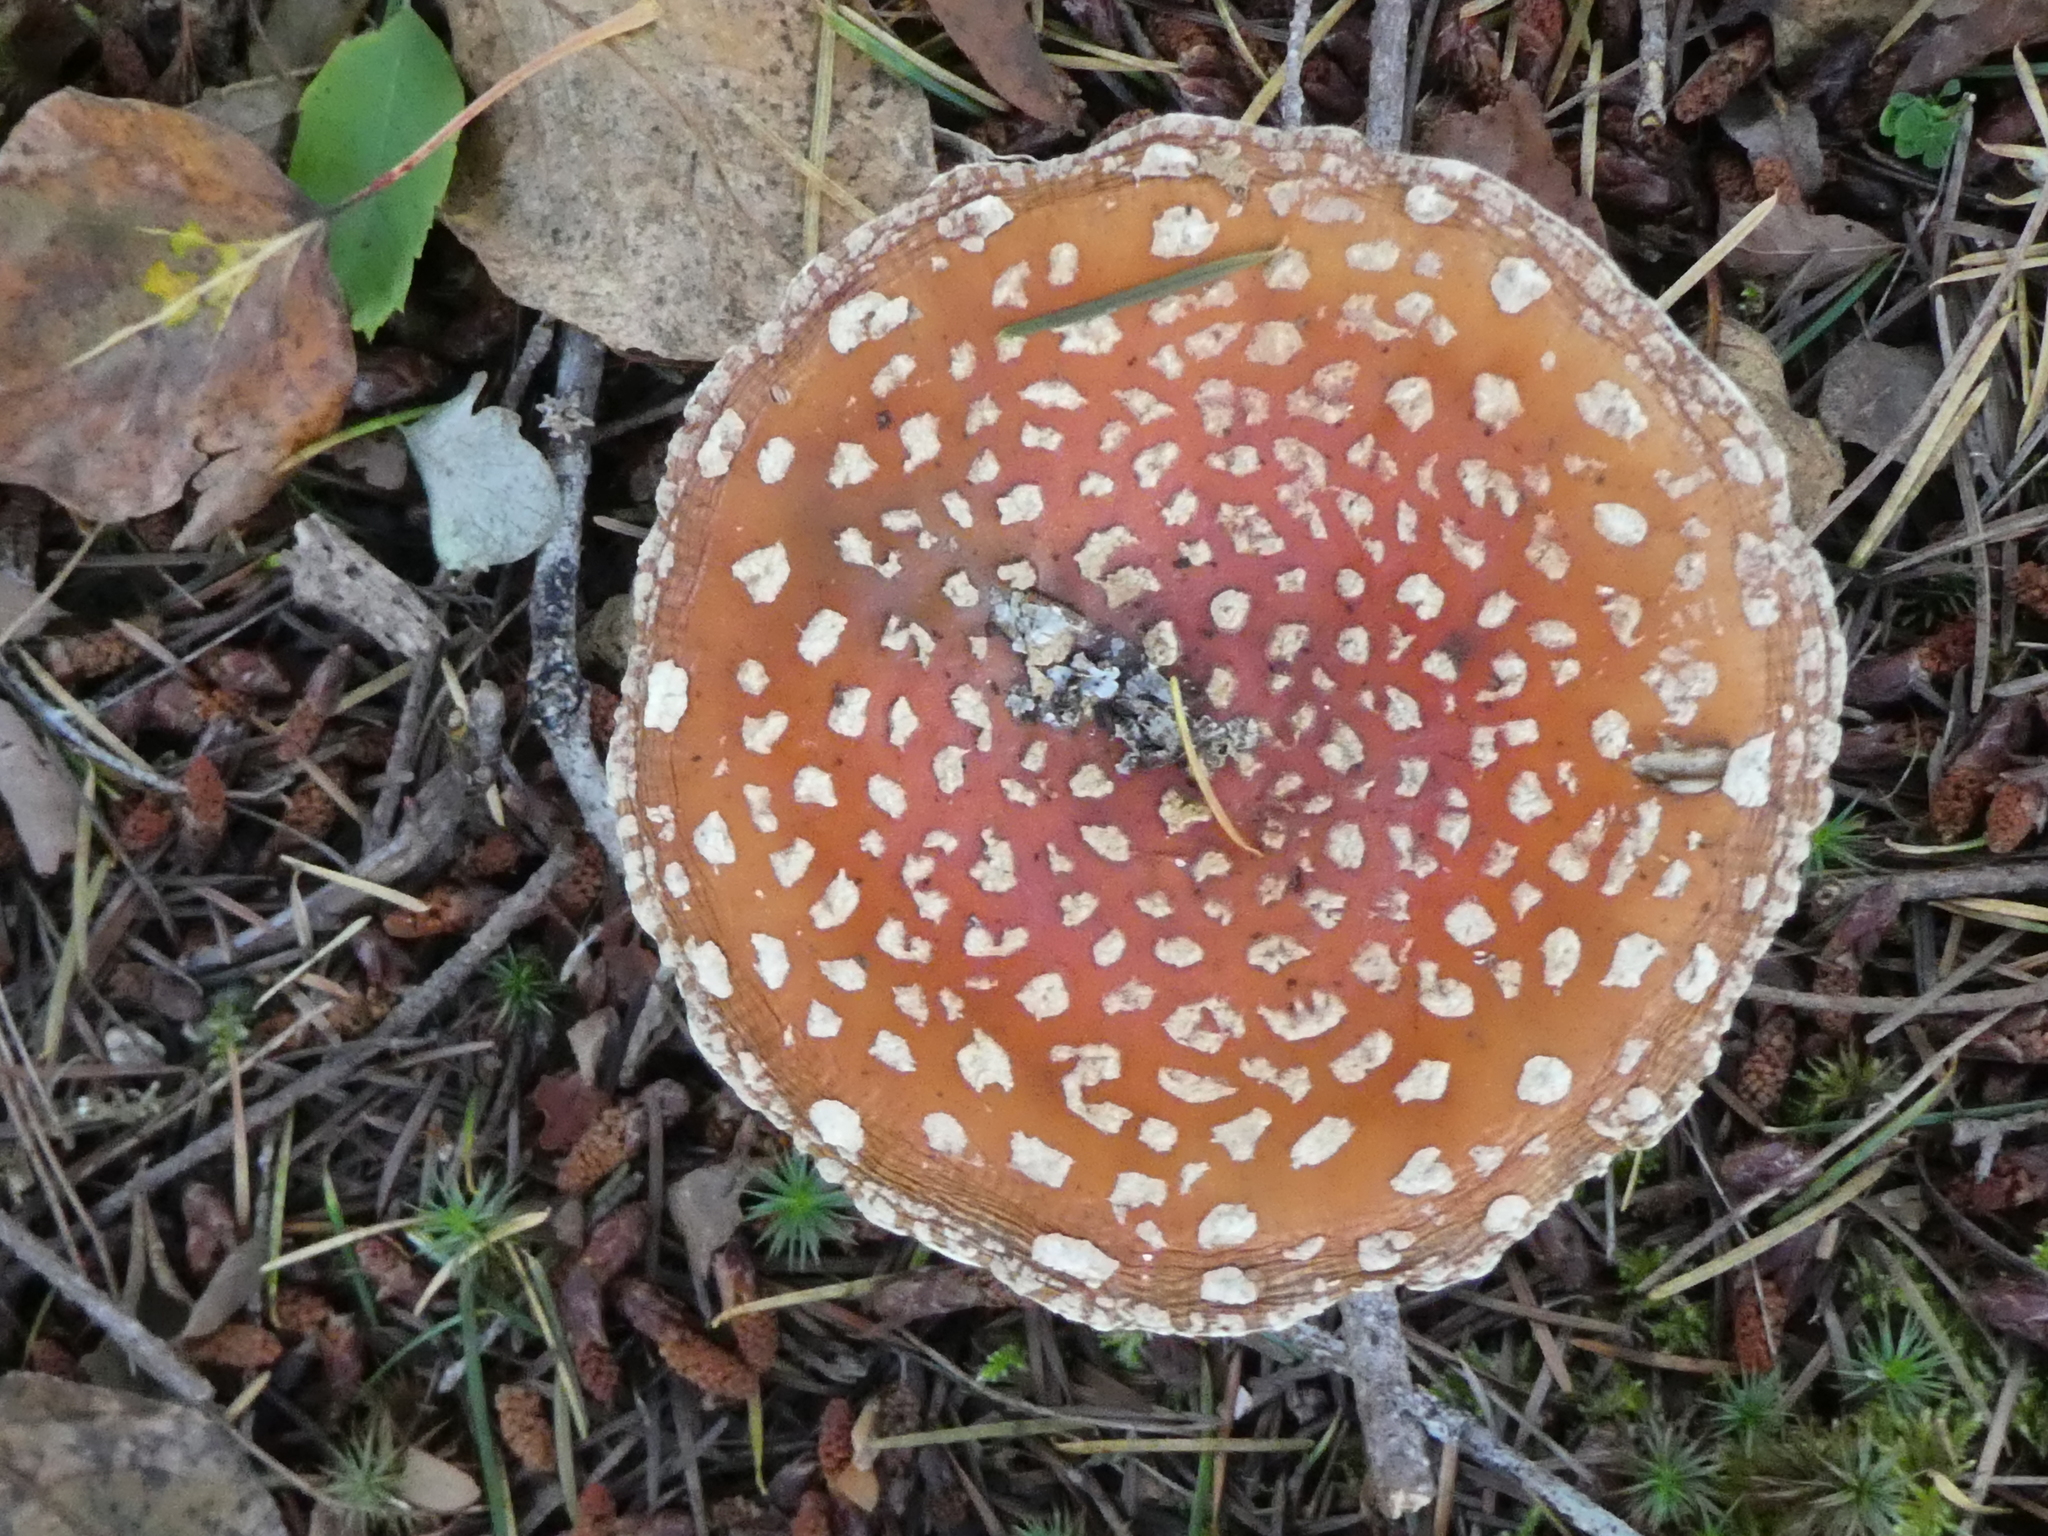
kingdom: Fungi
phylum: Basidiomycota
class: Agaricomycetes
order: Agaricales
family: Amanitaceae
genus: Amanita
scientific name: Amanita muscaria
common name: Fly agaric
